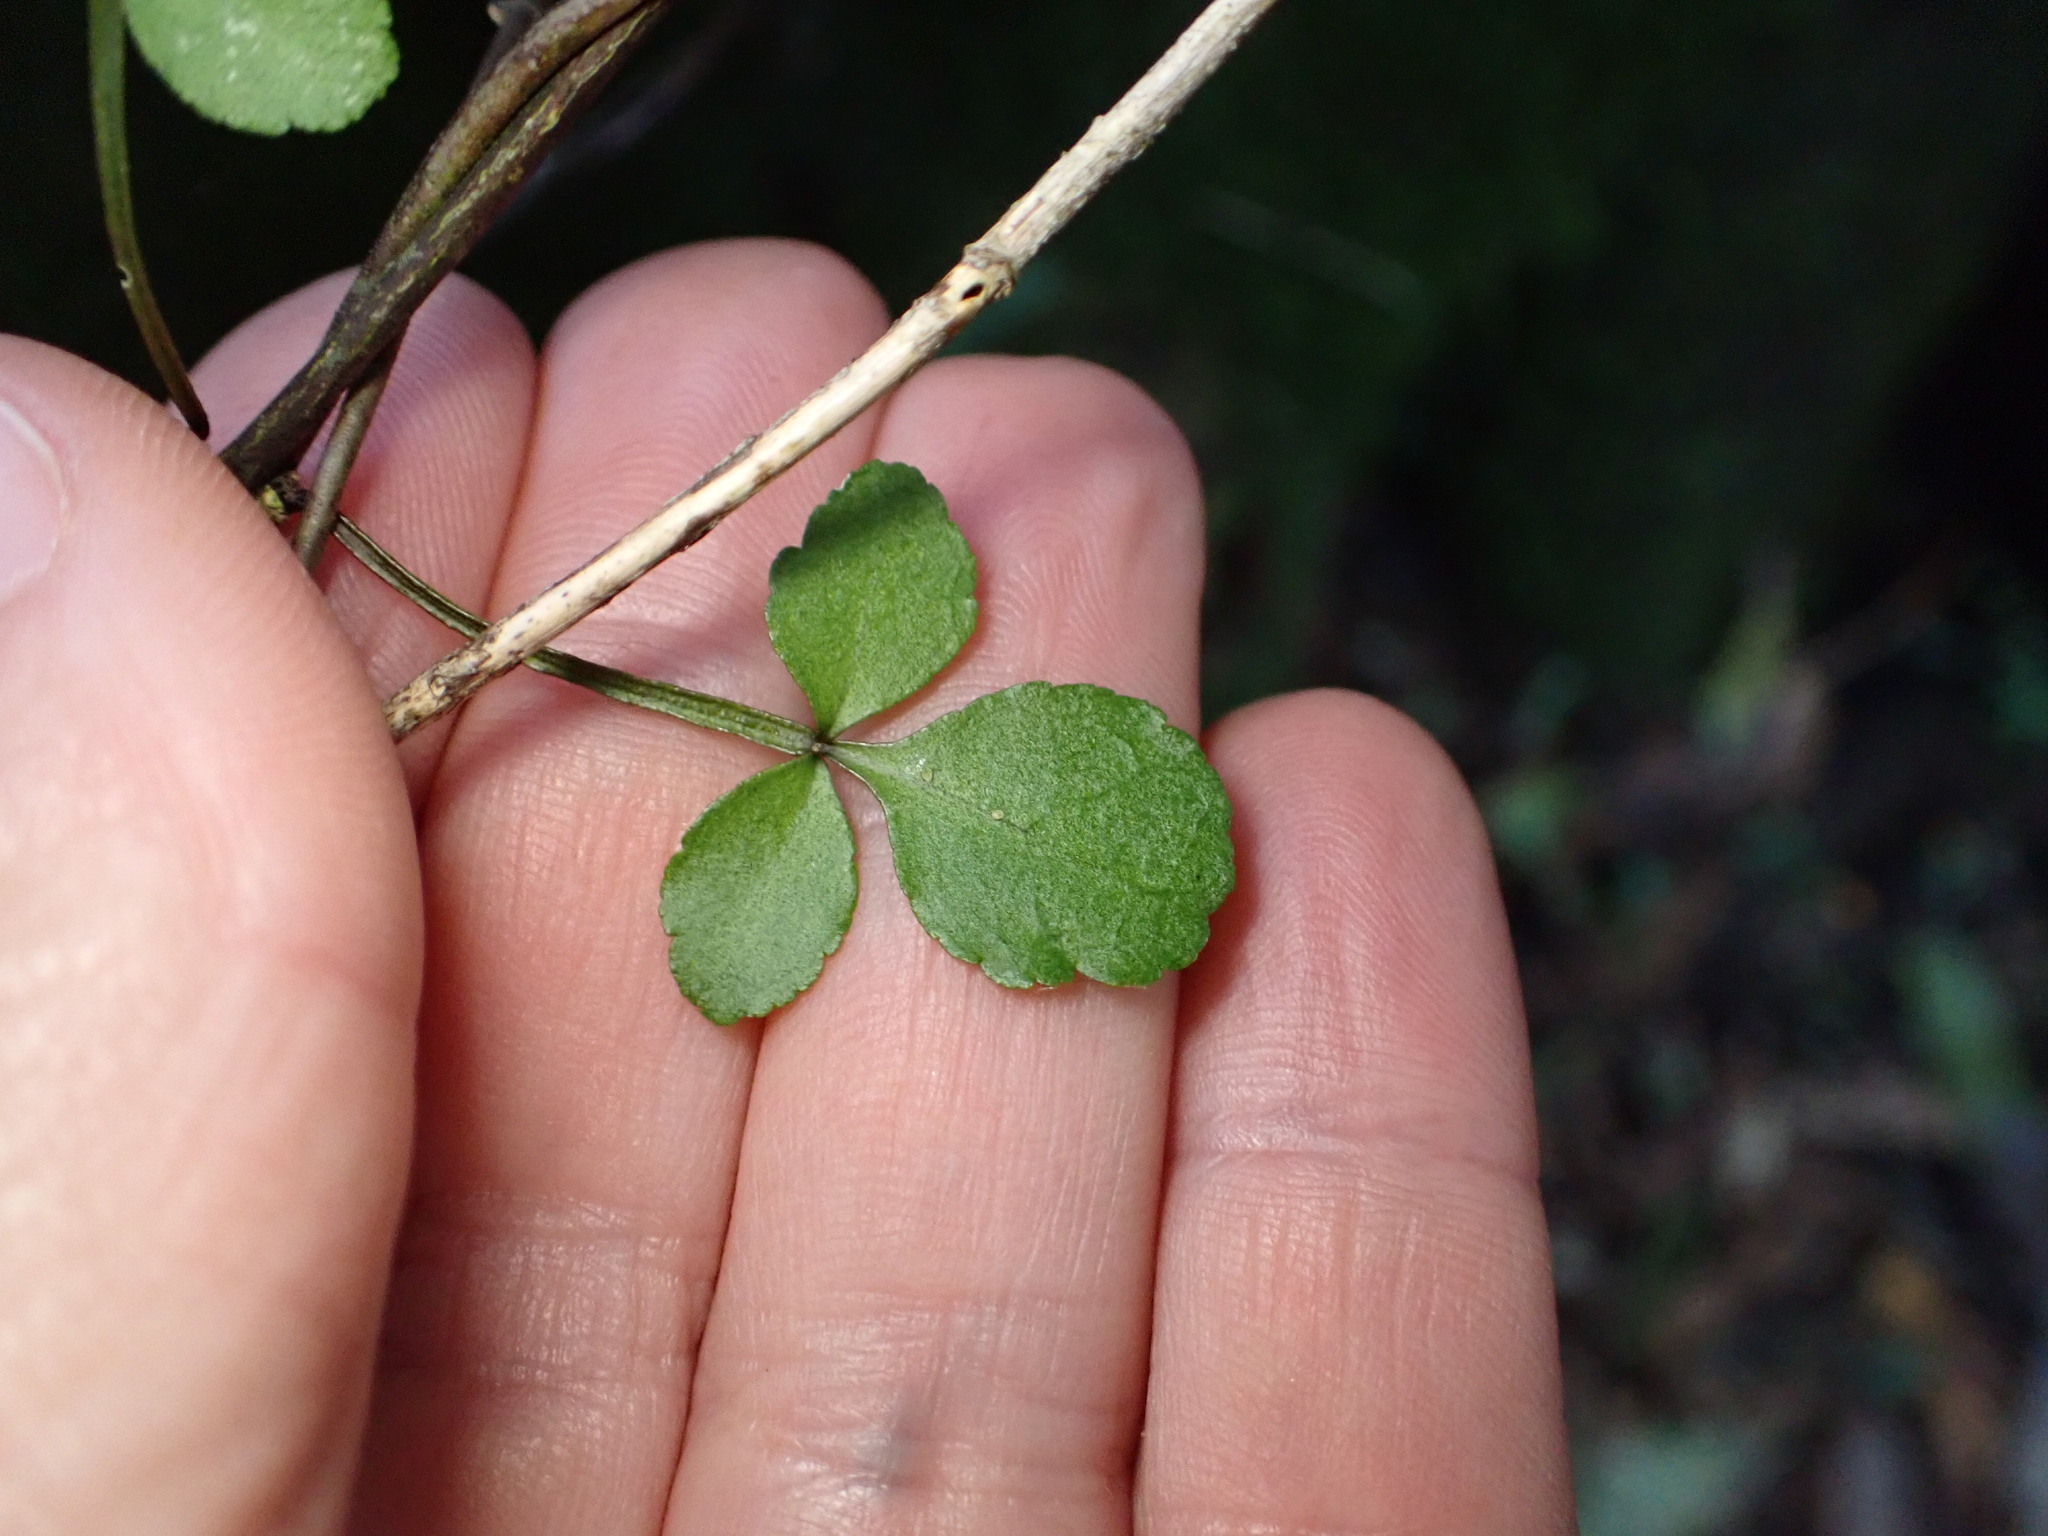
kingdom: Plantae
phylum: Tracheophyta
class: Magnoliopsida
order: Sapindales
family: Rutaceae
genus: Melicope
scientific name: Melicope simplex
